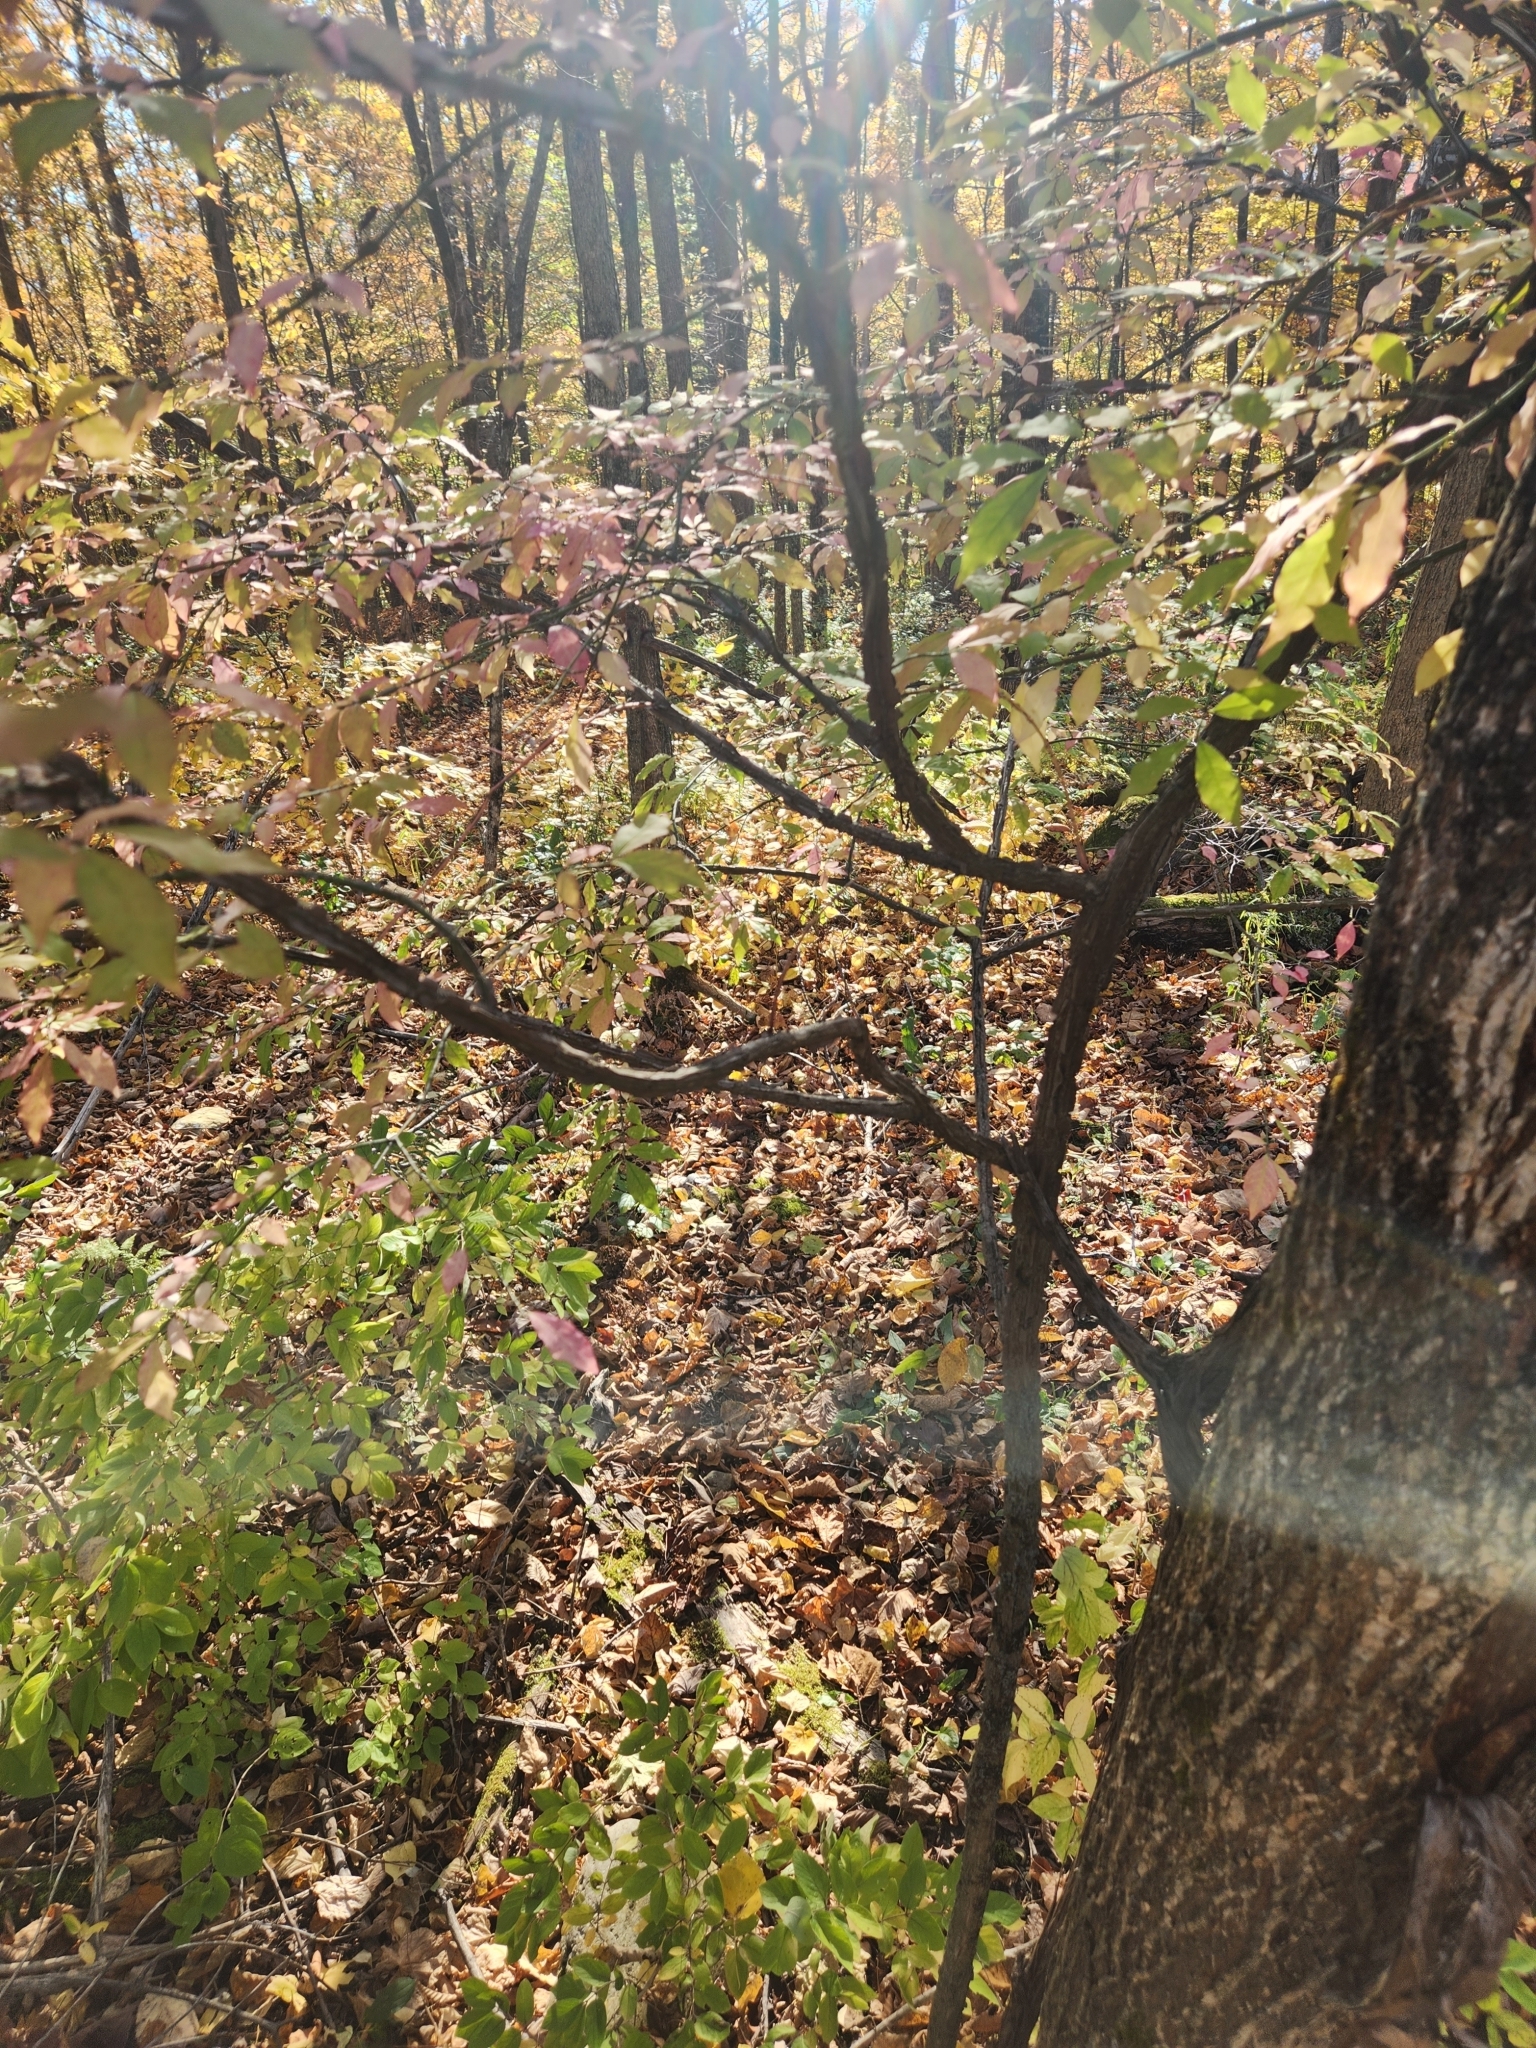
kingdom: Plantae
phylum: Tracheophyta
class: Magnoliopsida
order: Celastrales
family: Celastraceae
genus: Euonymus
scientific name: Euonymus alatus
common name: Winged euonymus
